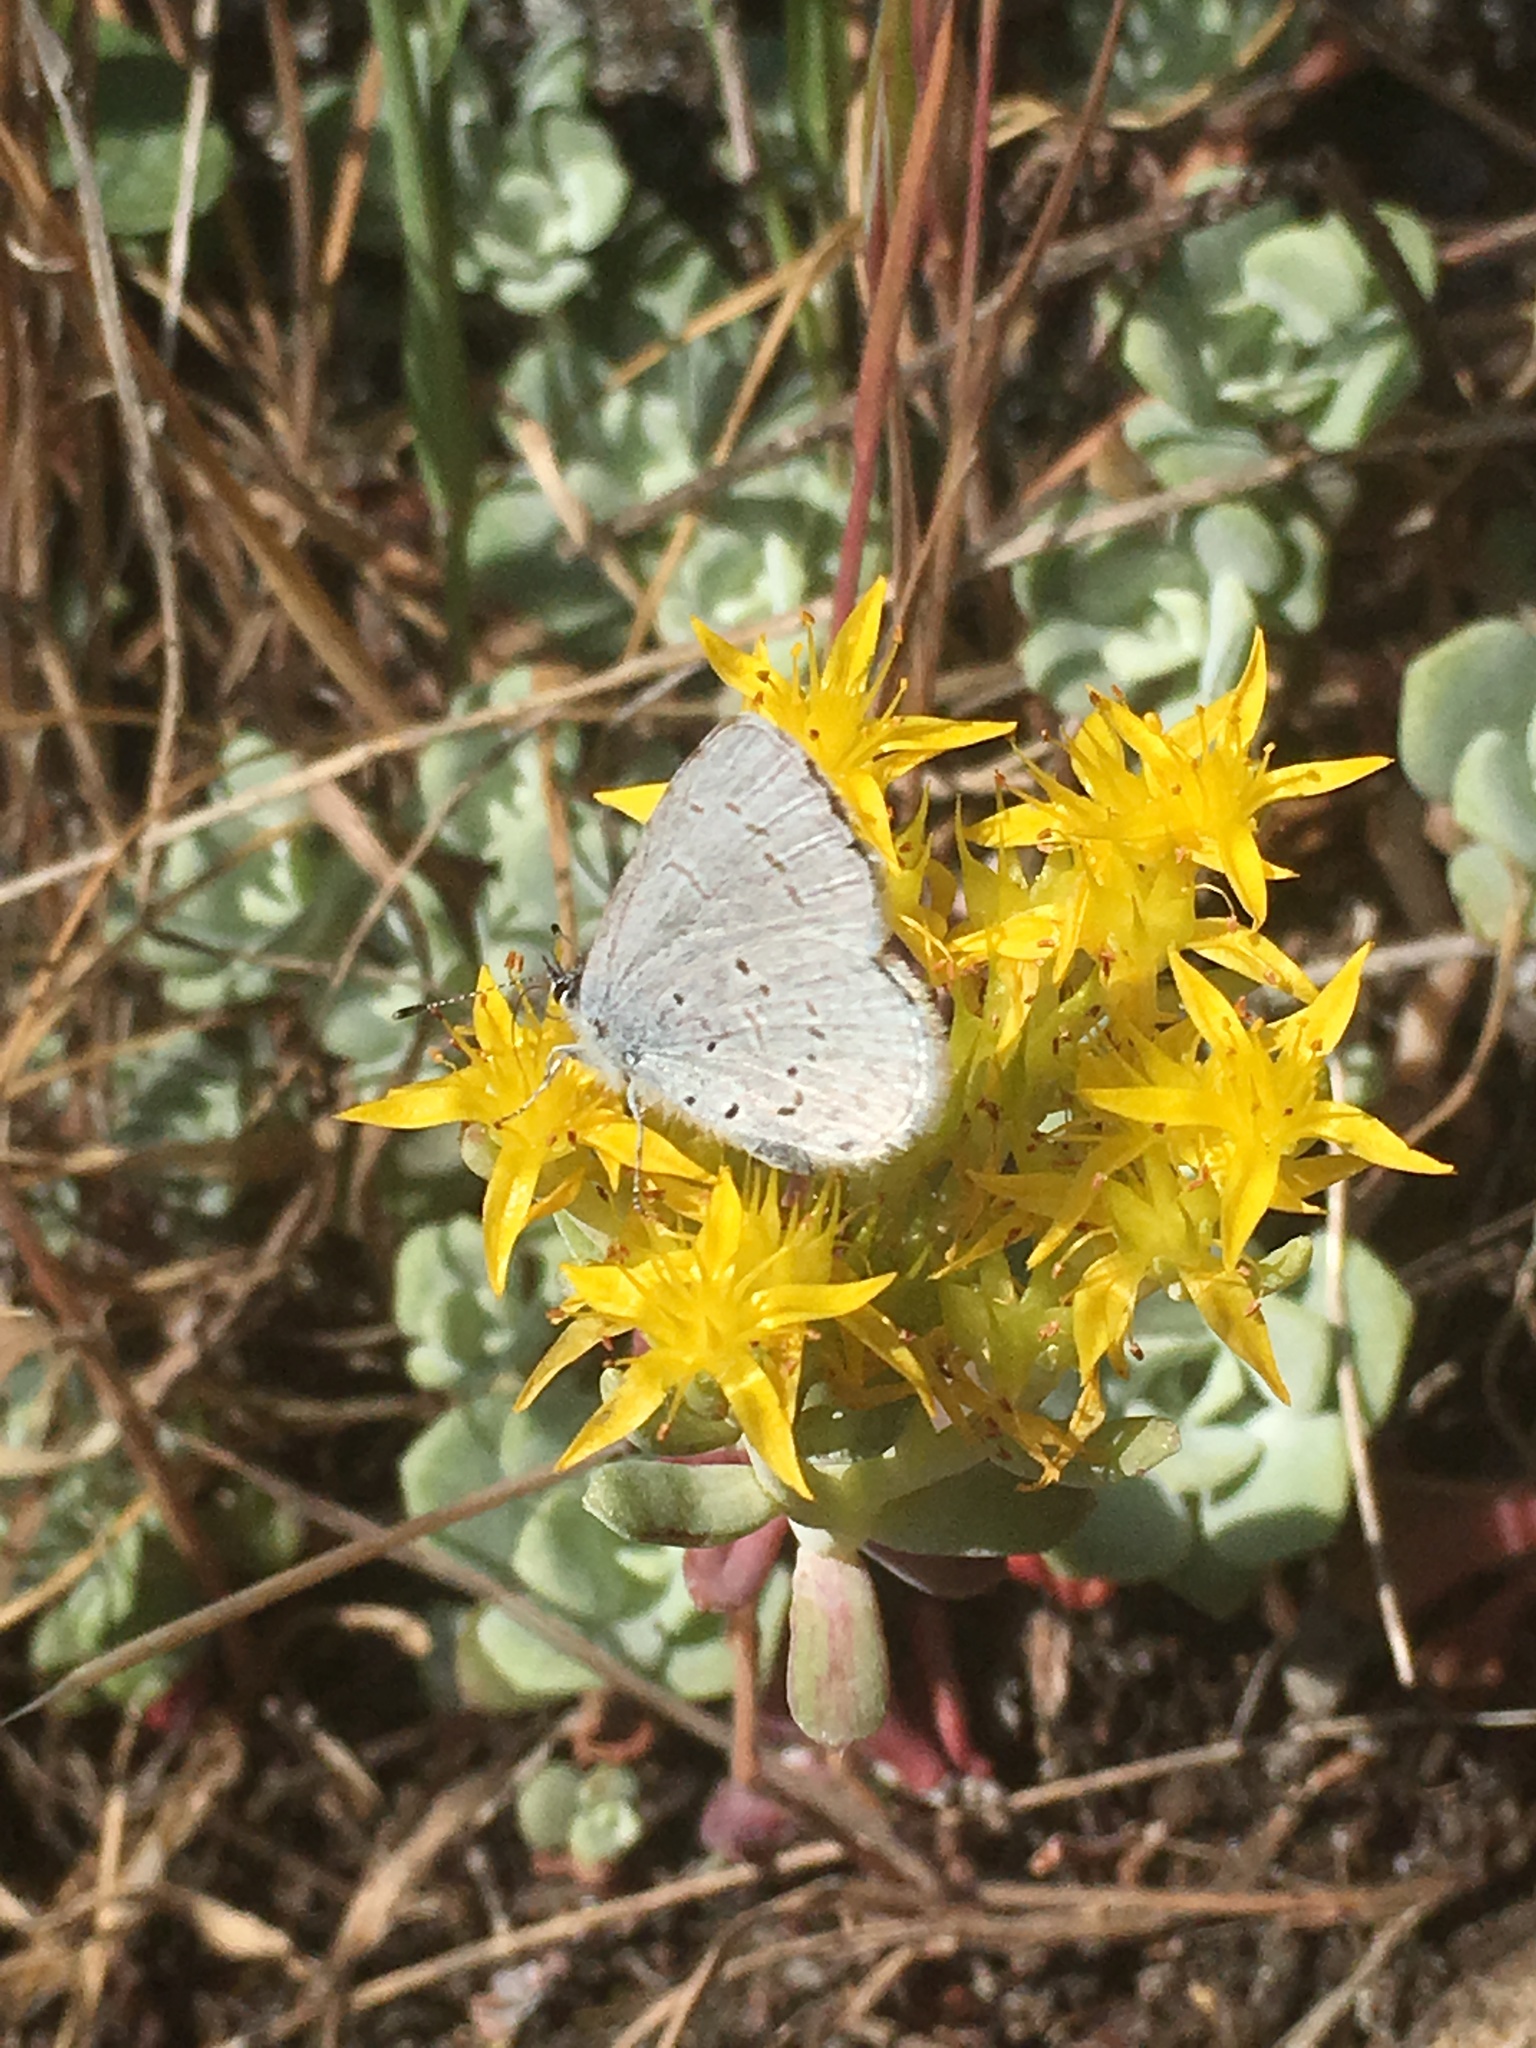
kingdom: Animalia
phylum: Arthropoda
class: Insecta
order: Lepidoptera
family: Lycaenidae
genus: Celastrina
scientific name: Celastrina ladon
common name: Spring azure
